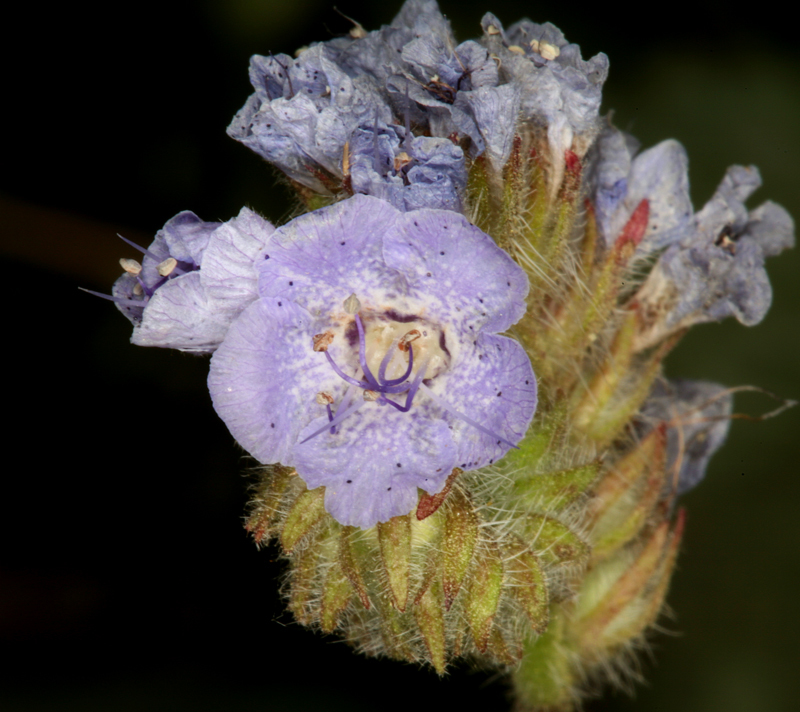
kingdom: Plantae
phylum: Tracheophyta
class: Magnoliopsida
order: Boraginales
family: Hydrophyllaceae
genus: Phacelia
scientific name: Phacelia distans
